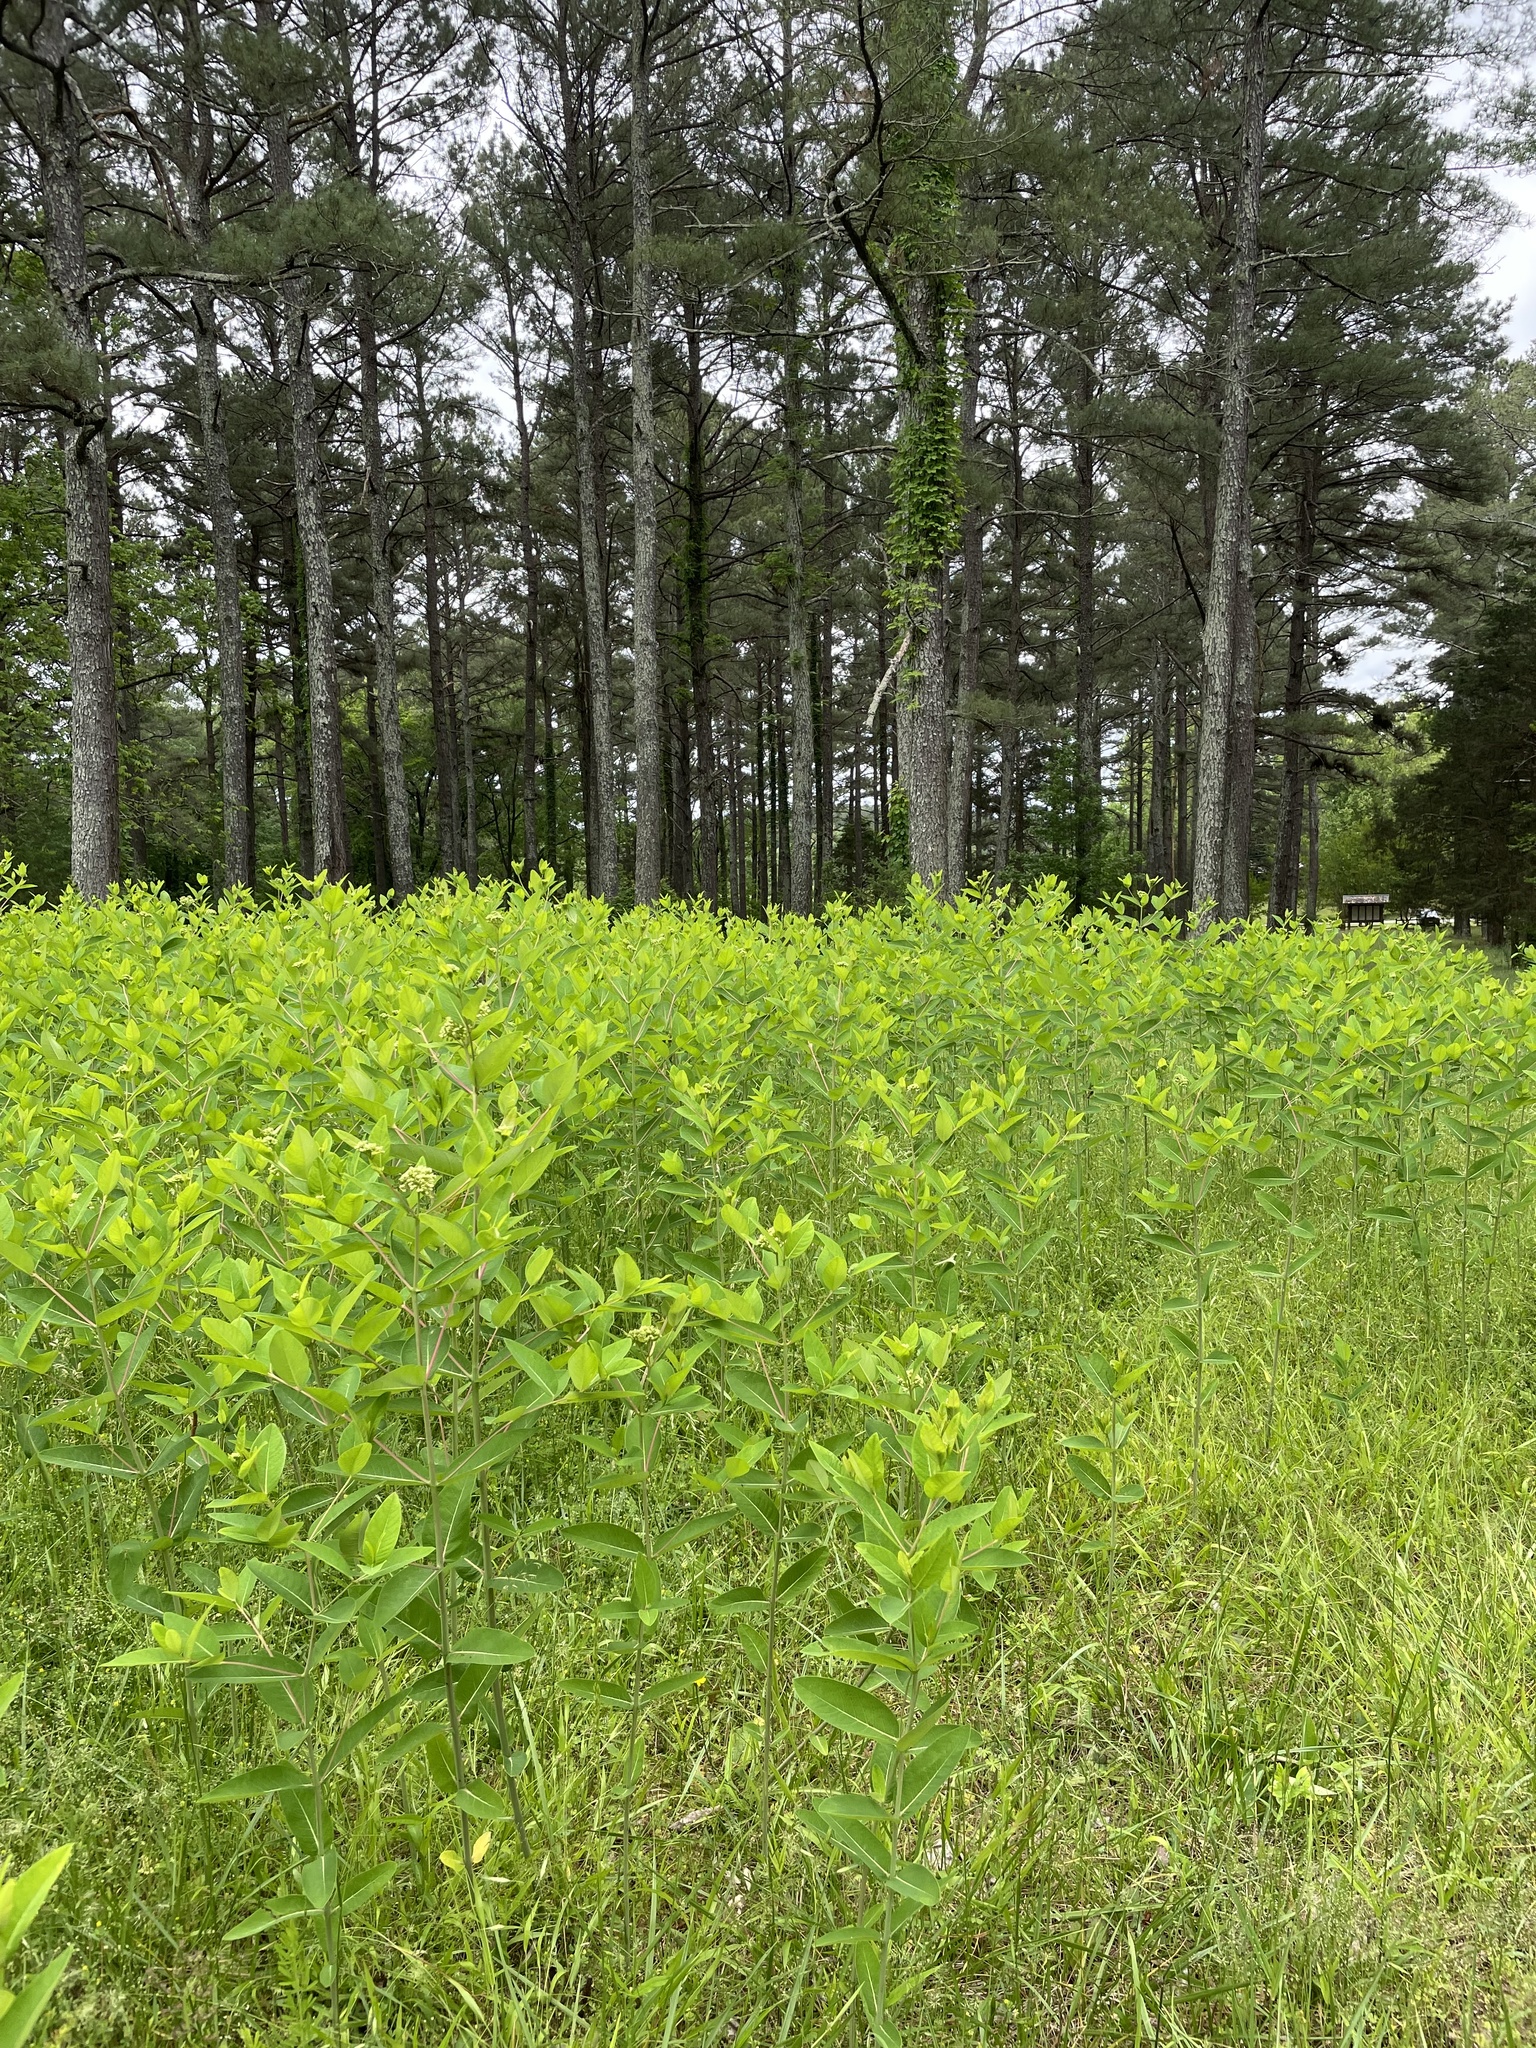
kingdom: Plantae
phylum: Tracheophyta
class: Magnoliopsida
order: Gentianales
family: Apocynaceae
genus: Apocynum
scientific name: Apocynum cannabinum
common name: Hemp dogbane
